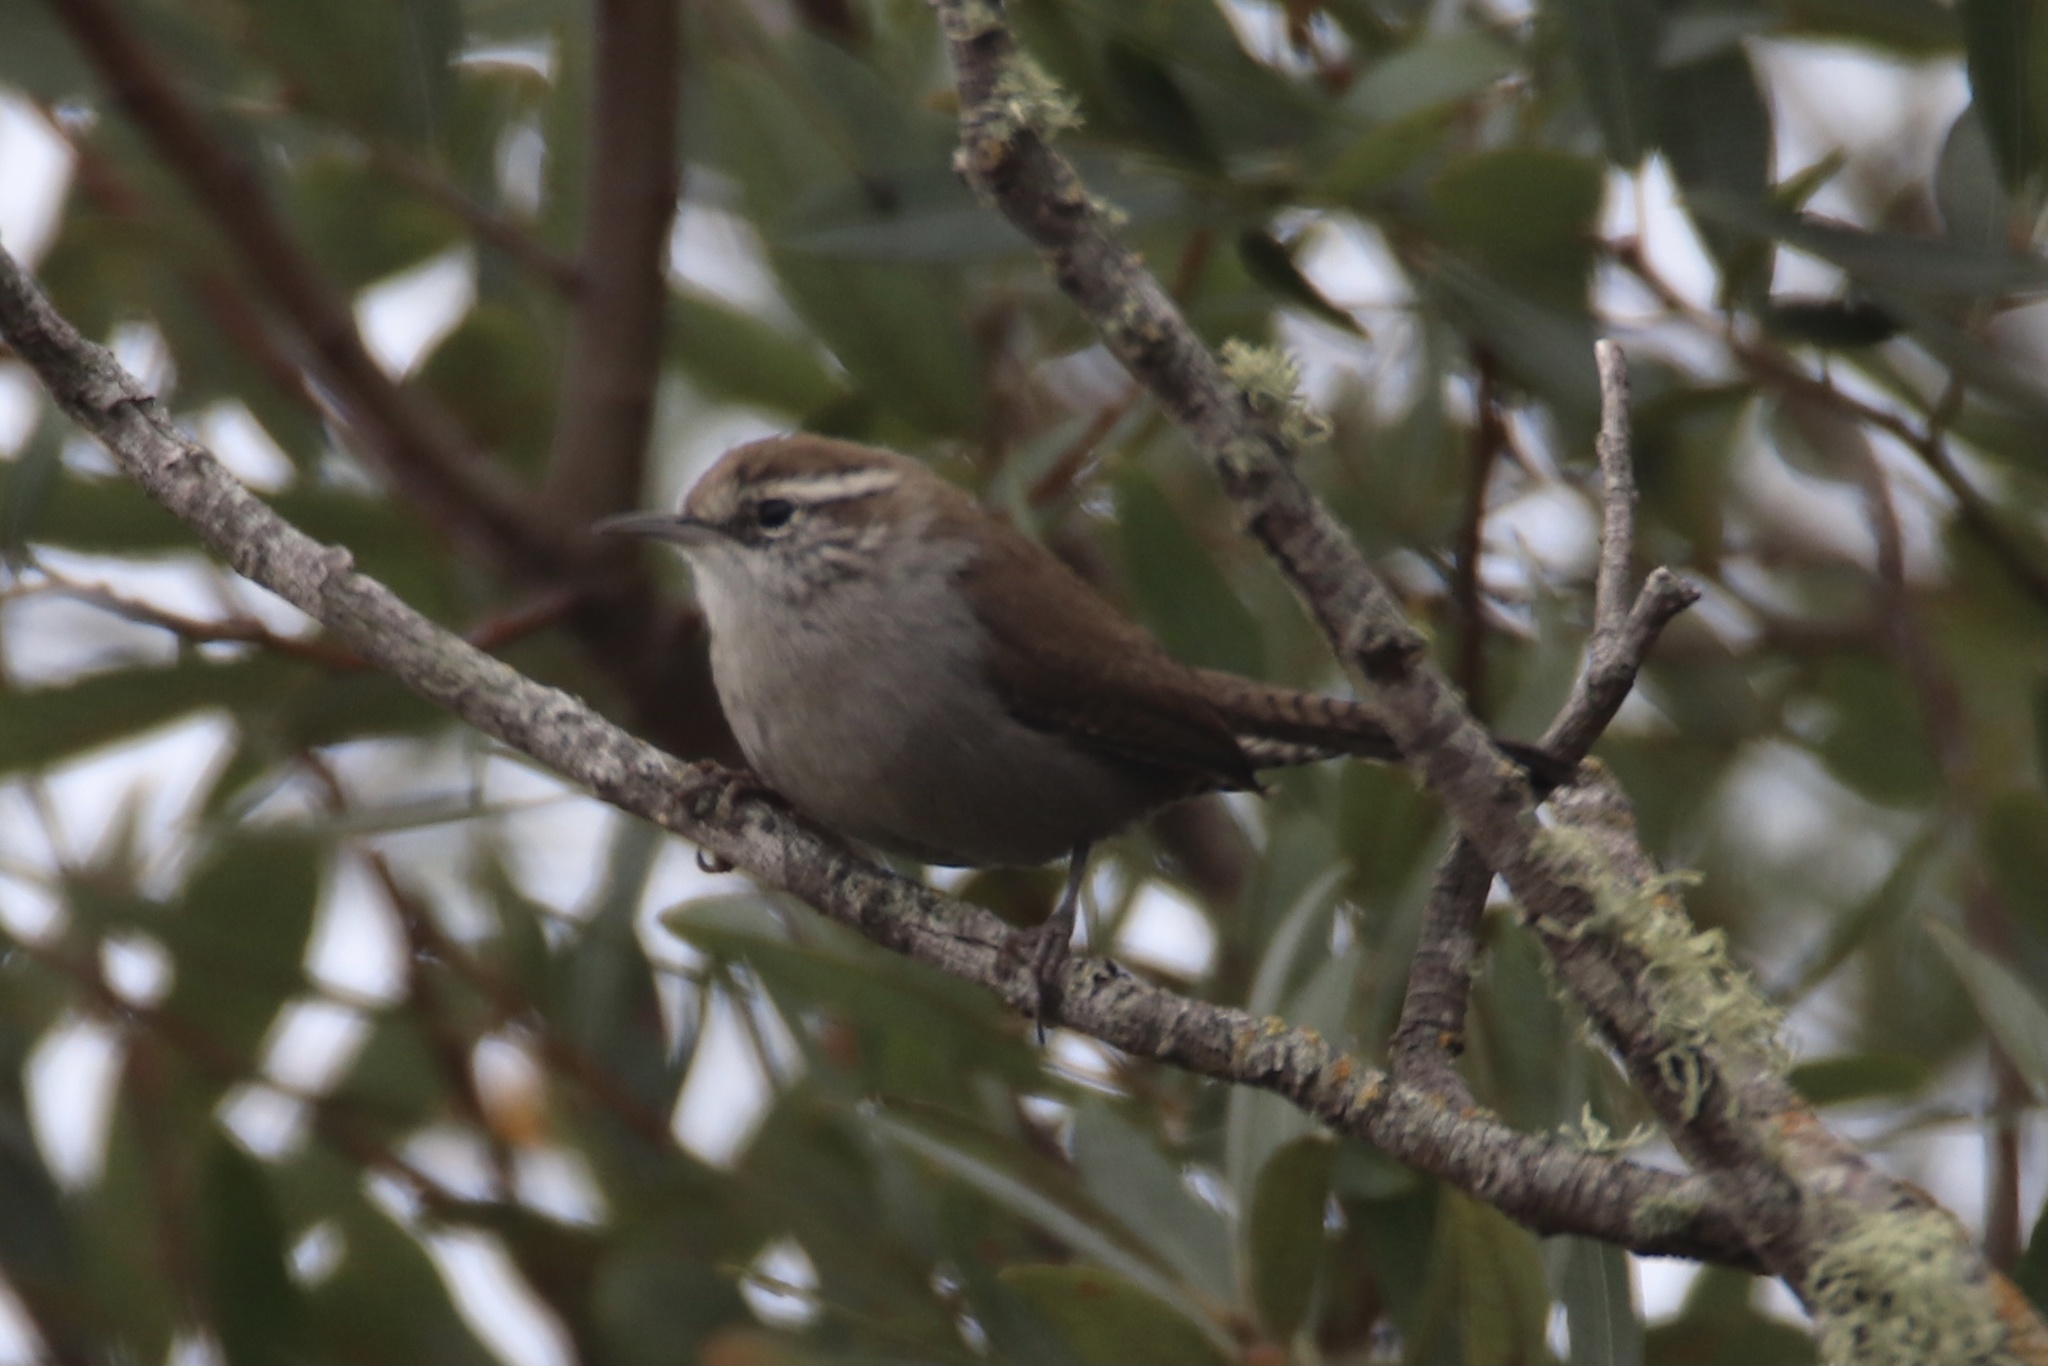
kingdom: Animalia
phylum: Chordata
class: Aves
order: Passeriformes
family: Troglodytidae
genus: Thryomanes
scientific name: Thryomanes bewickii
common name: Bewick's wren
